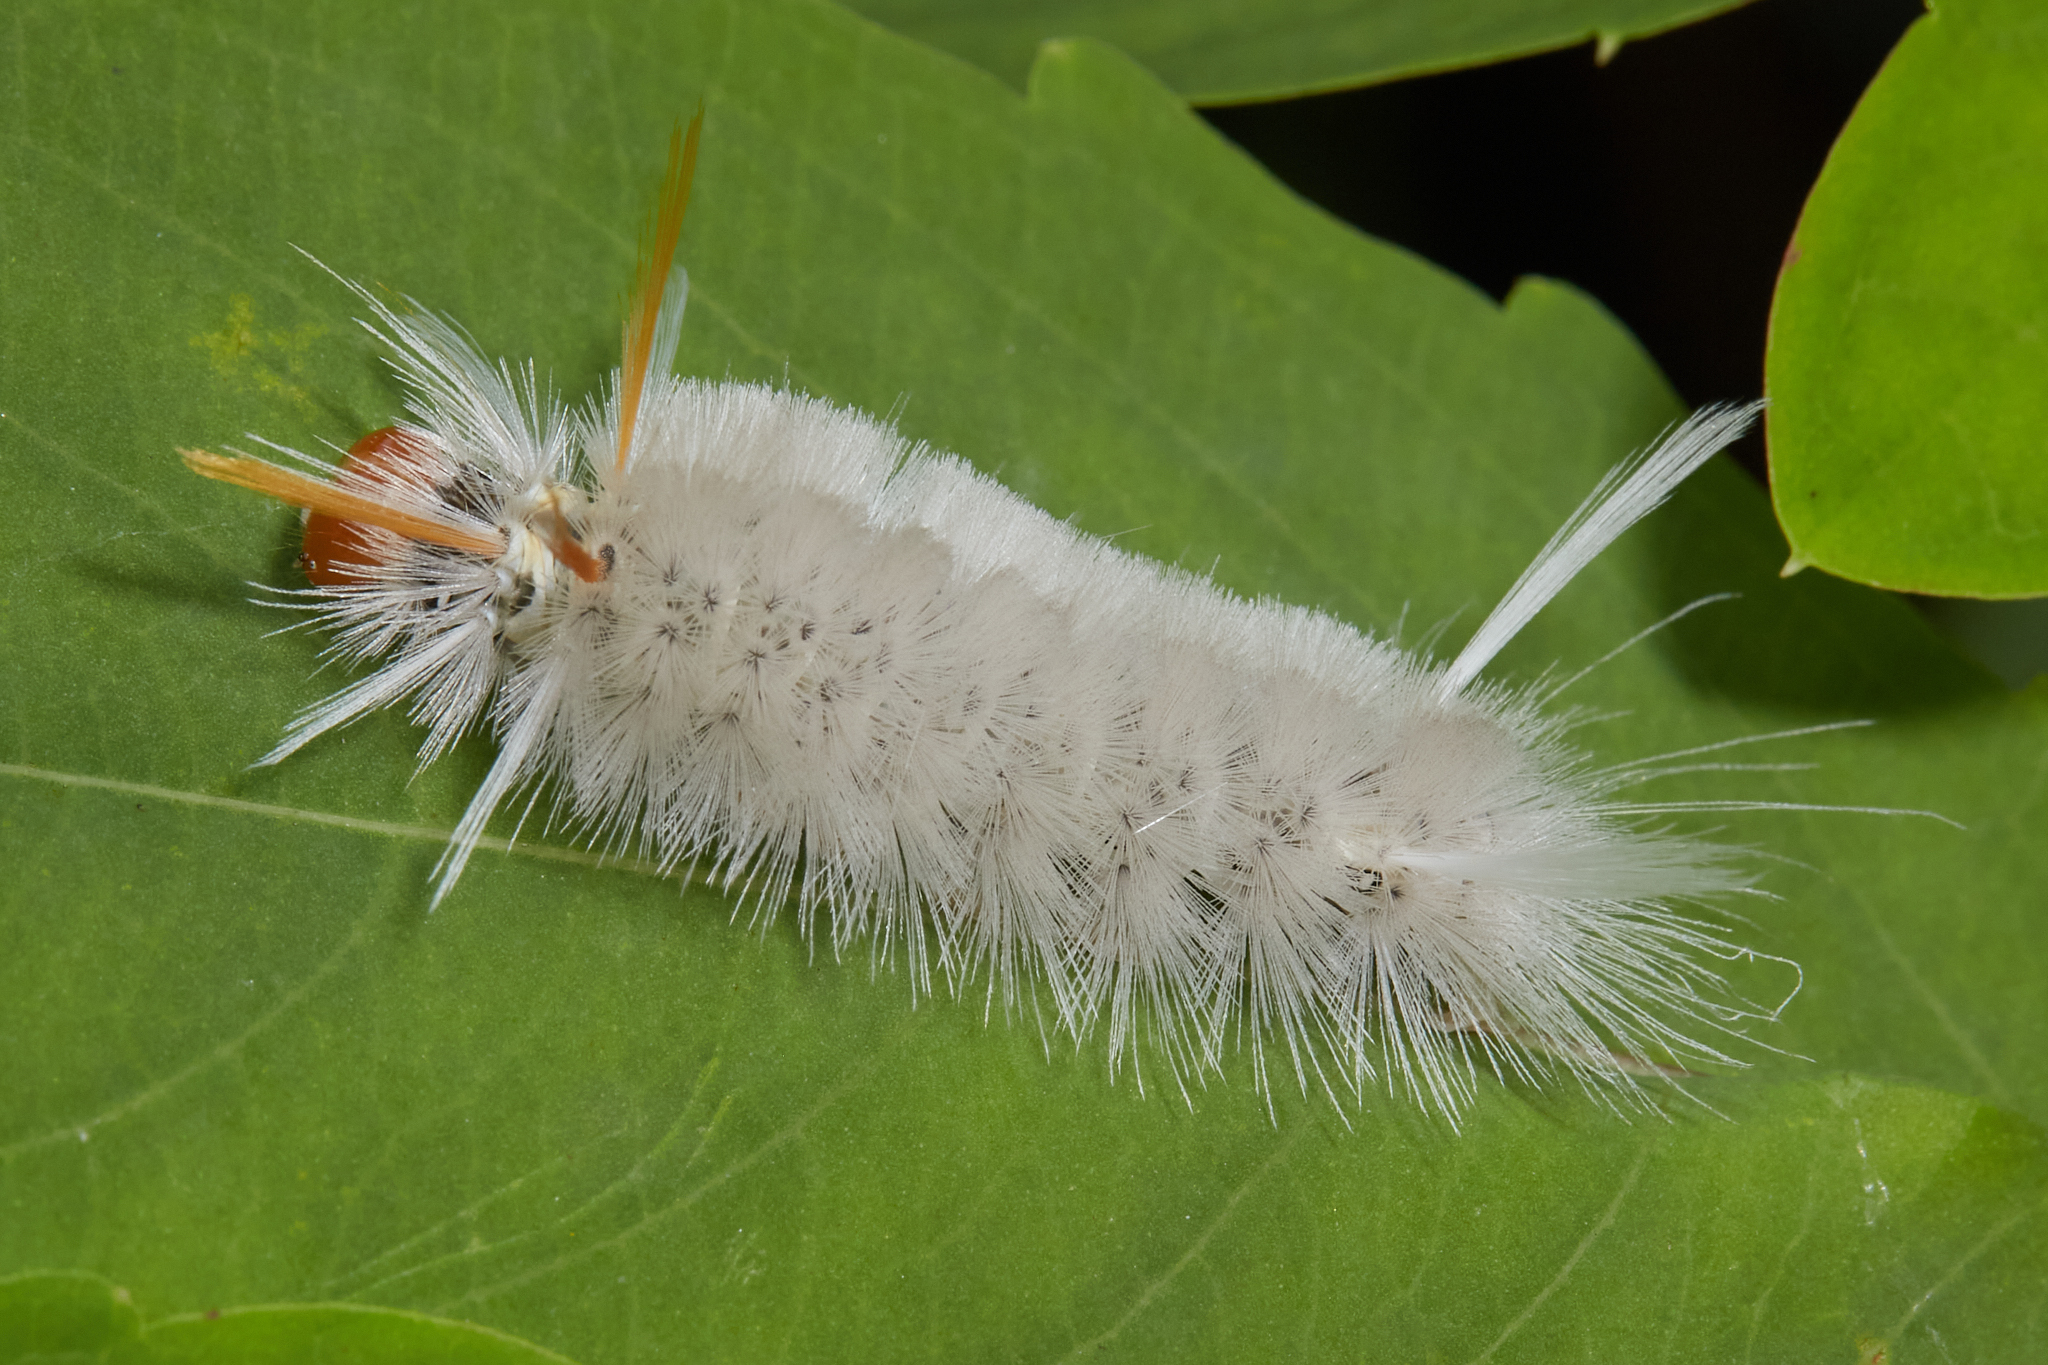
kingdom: Animalia
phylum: Arthropoda
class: Insecta
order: Lepidoptera
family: Erebidae
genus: Halysidota
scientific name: Halysidota harrisii
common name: Sycamore tussock moth
